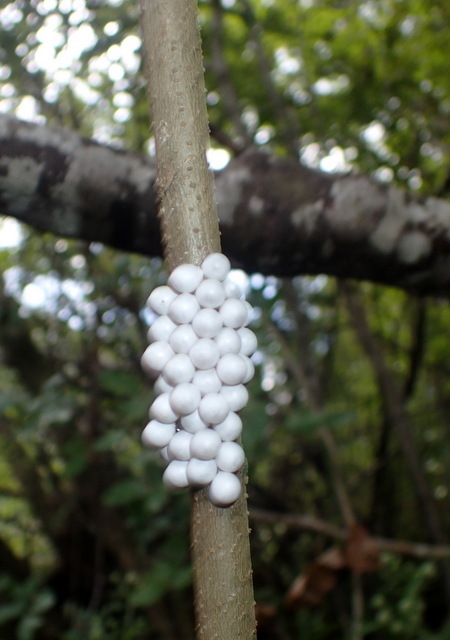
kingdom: Animalia
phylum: Mollusca
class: Gastropoda
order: Architaenioglossa
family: Ampullariidae
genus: Pomacea
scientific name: Pomacea paludosa
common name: Florida applesnail
